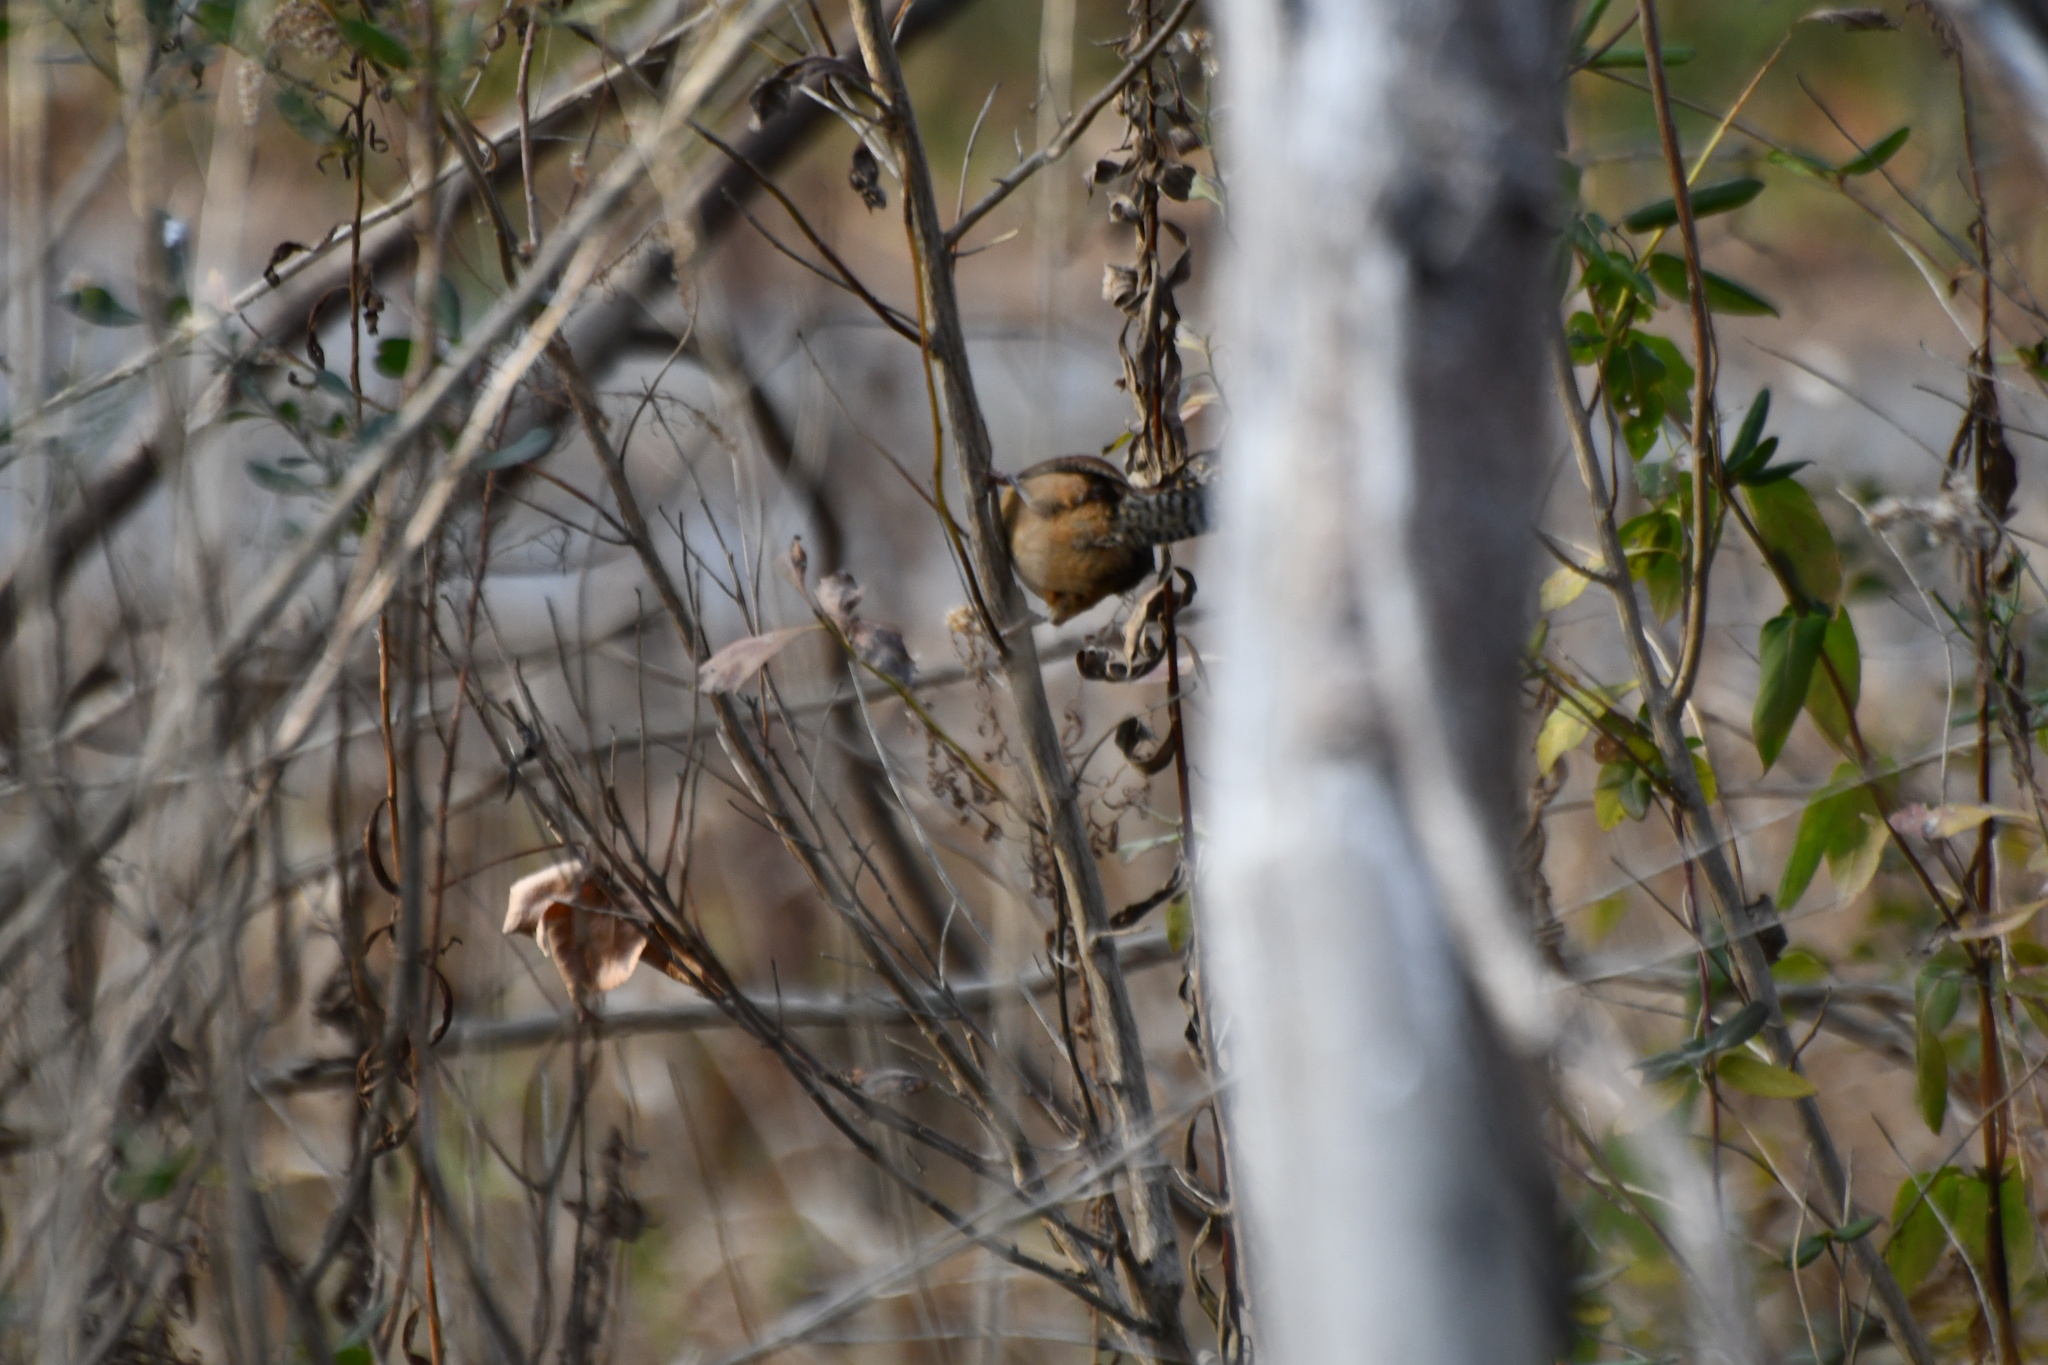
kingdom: Animalia
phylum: Chordata
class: Aves
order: Passeriformes
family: Troglodytidae
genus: Thryothorus
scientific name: Thryothorus ludovicianus
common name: Carolina wren
